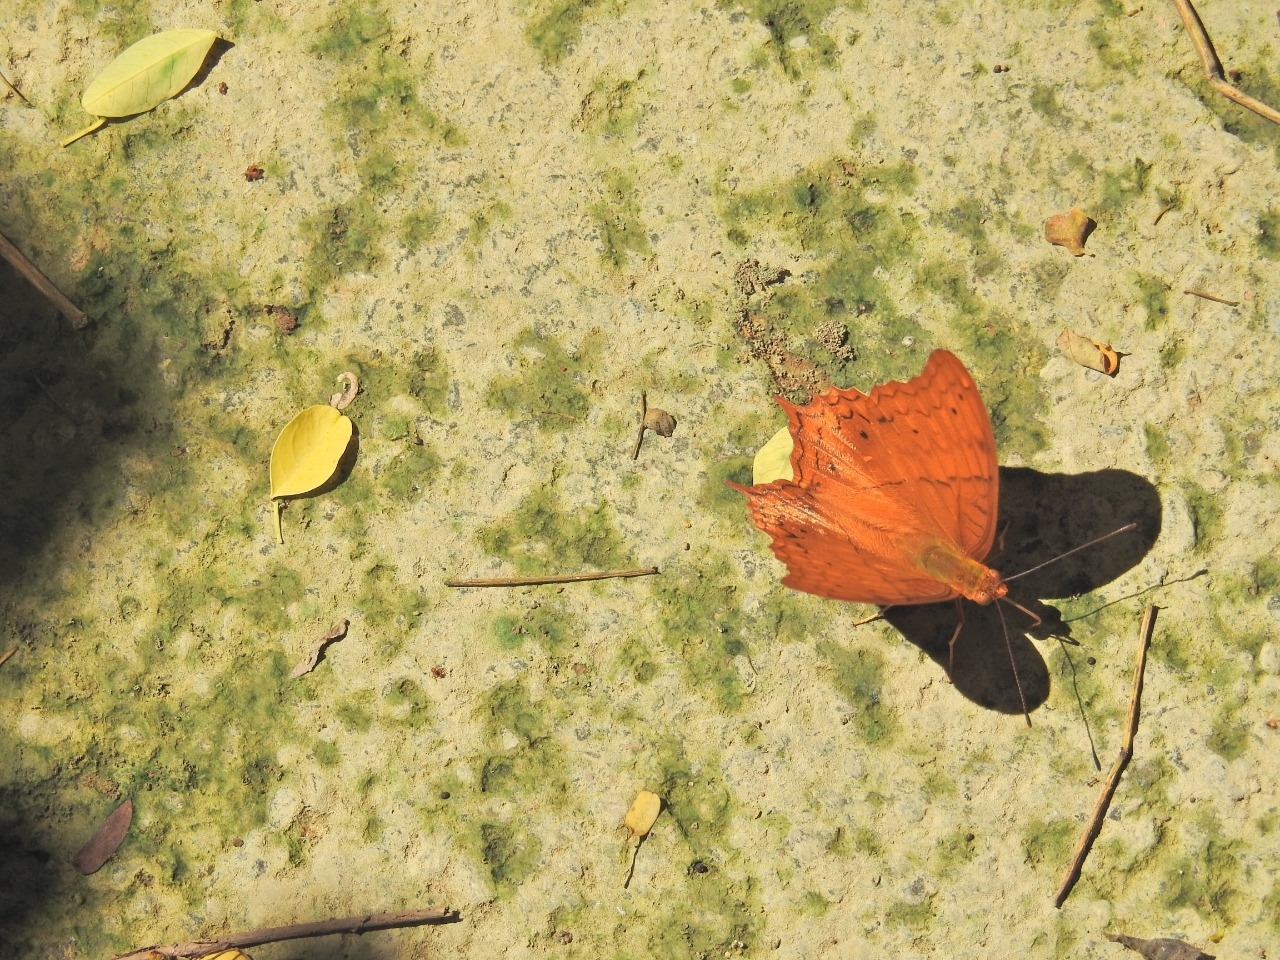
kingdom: Animalia
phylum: Arthropoda
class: Insecta
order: Lepidoptera
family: Nymphalidae
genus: Vindula
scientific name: Vindula deione
